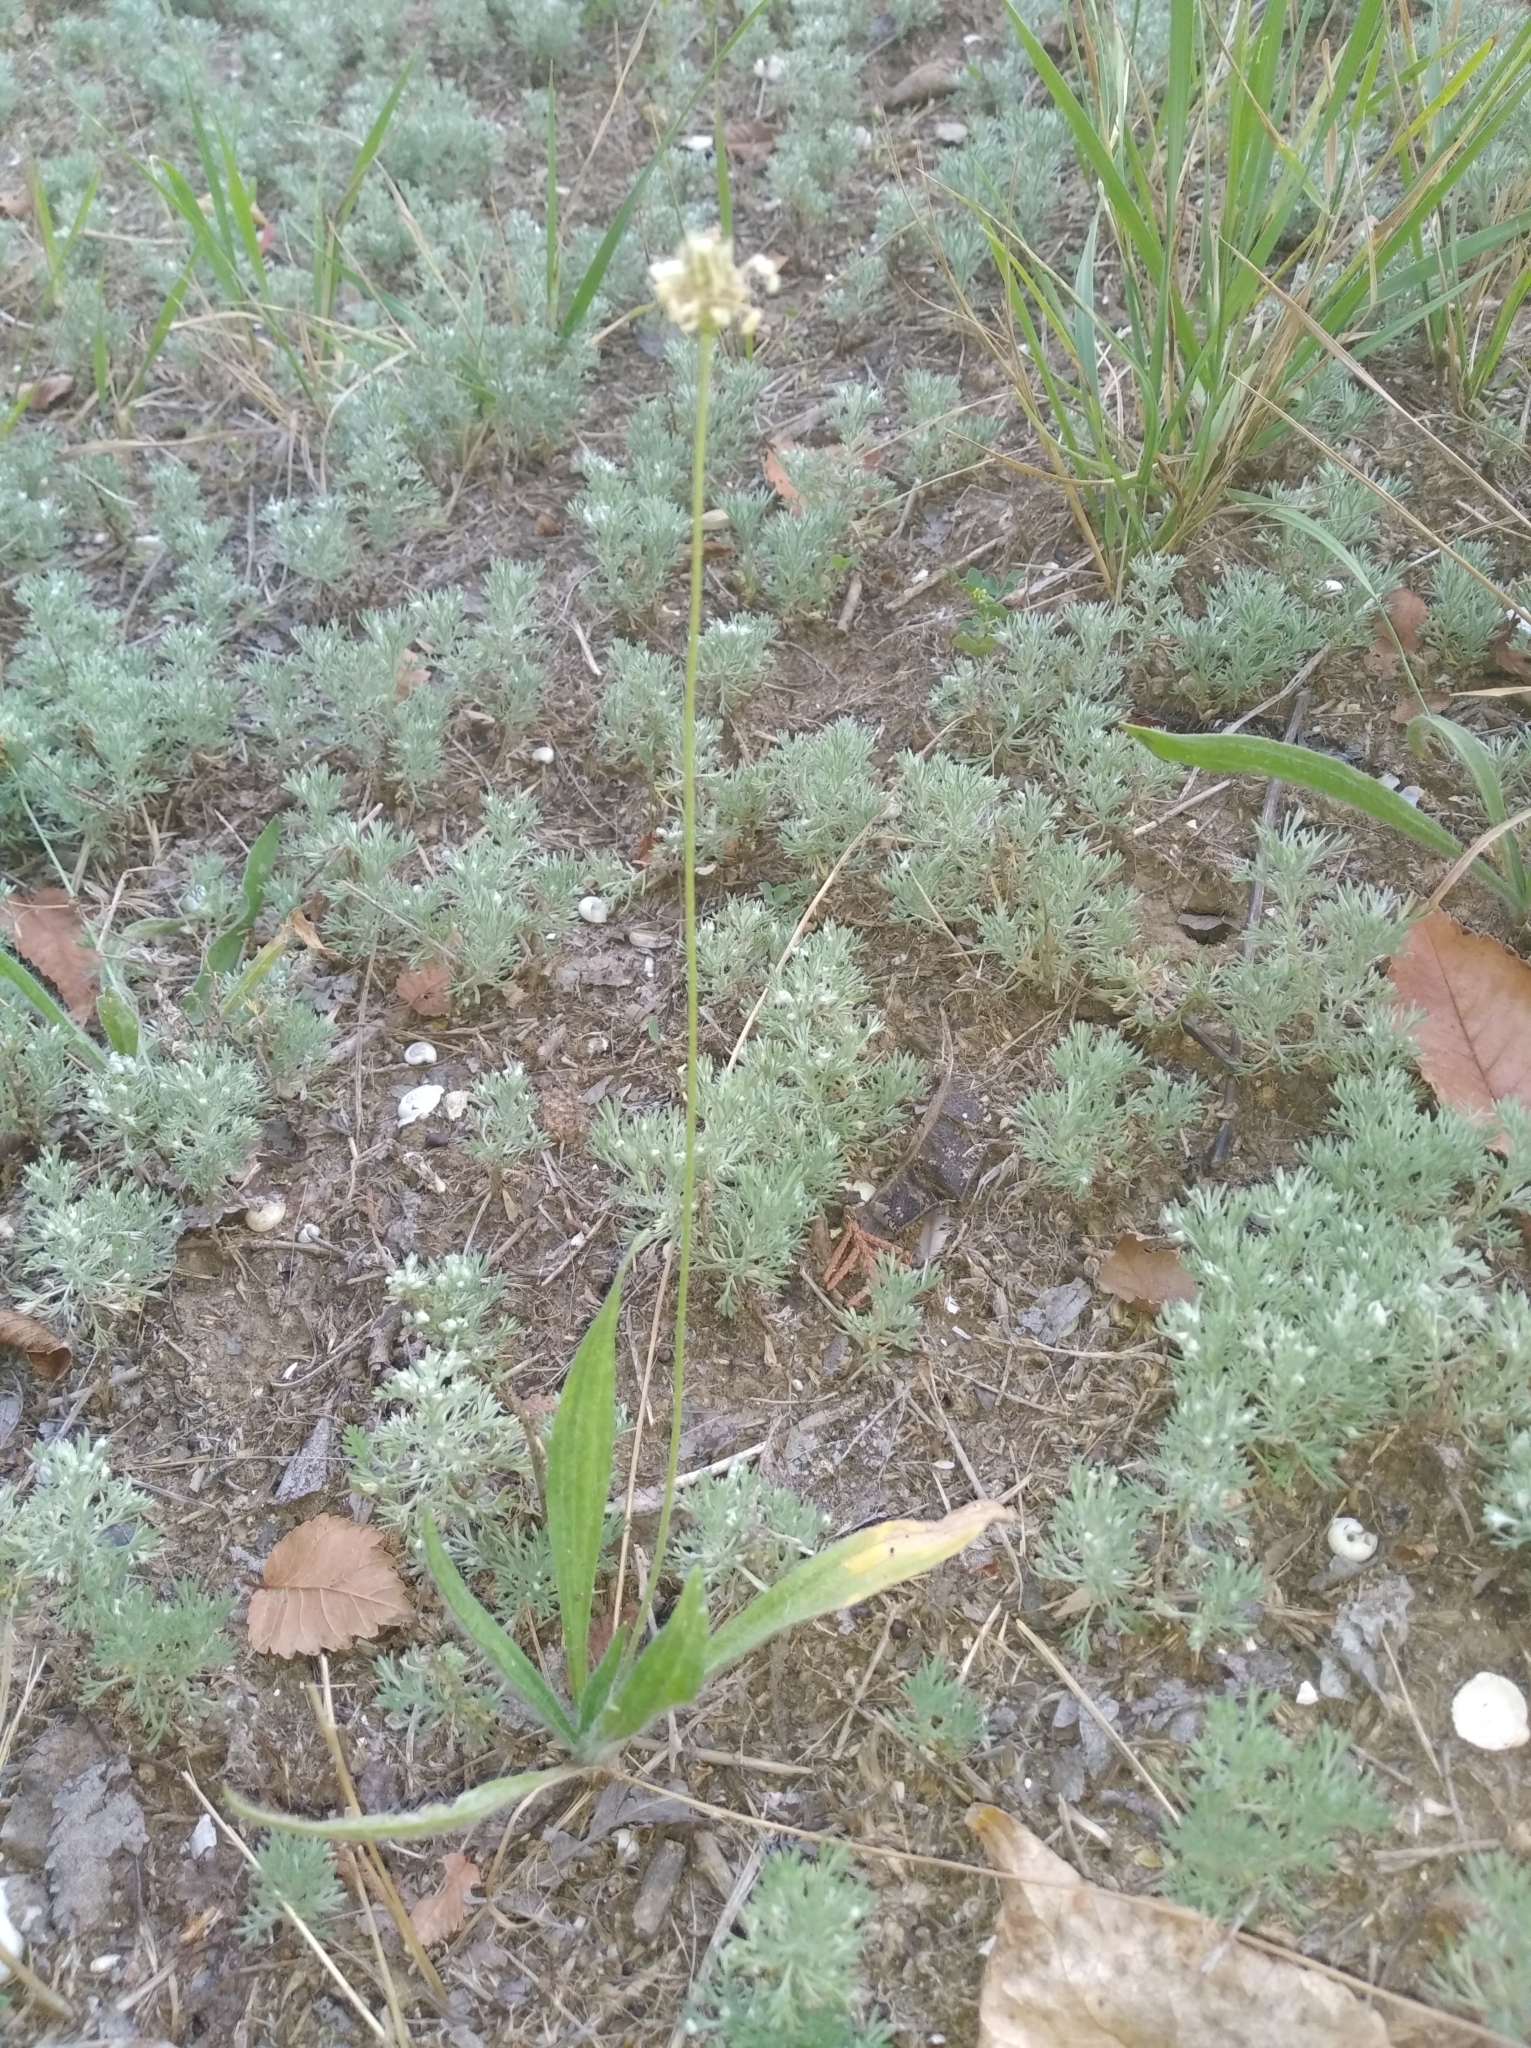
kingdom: Plantae
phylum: Tracheophyta
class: Magnoliopsida
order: Lamiales
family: Plantaginaceae
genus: Plantago
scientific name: Plantago lanceolata
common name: Ribwort plantain
